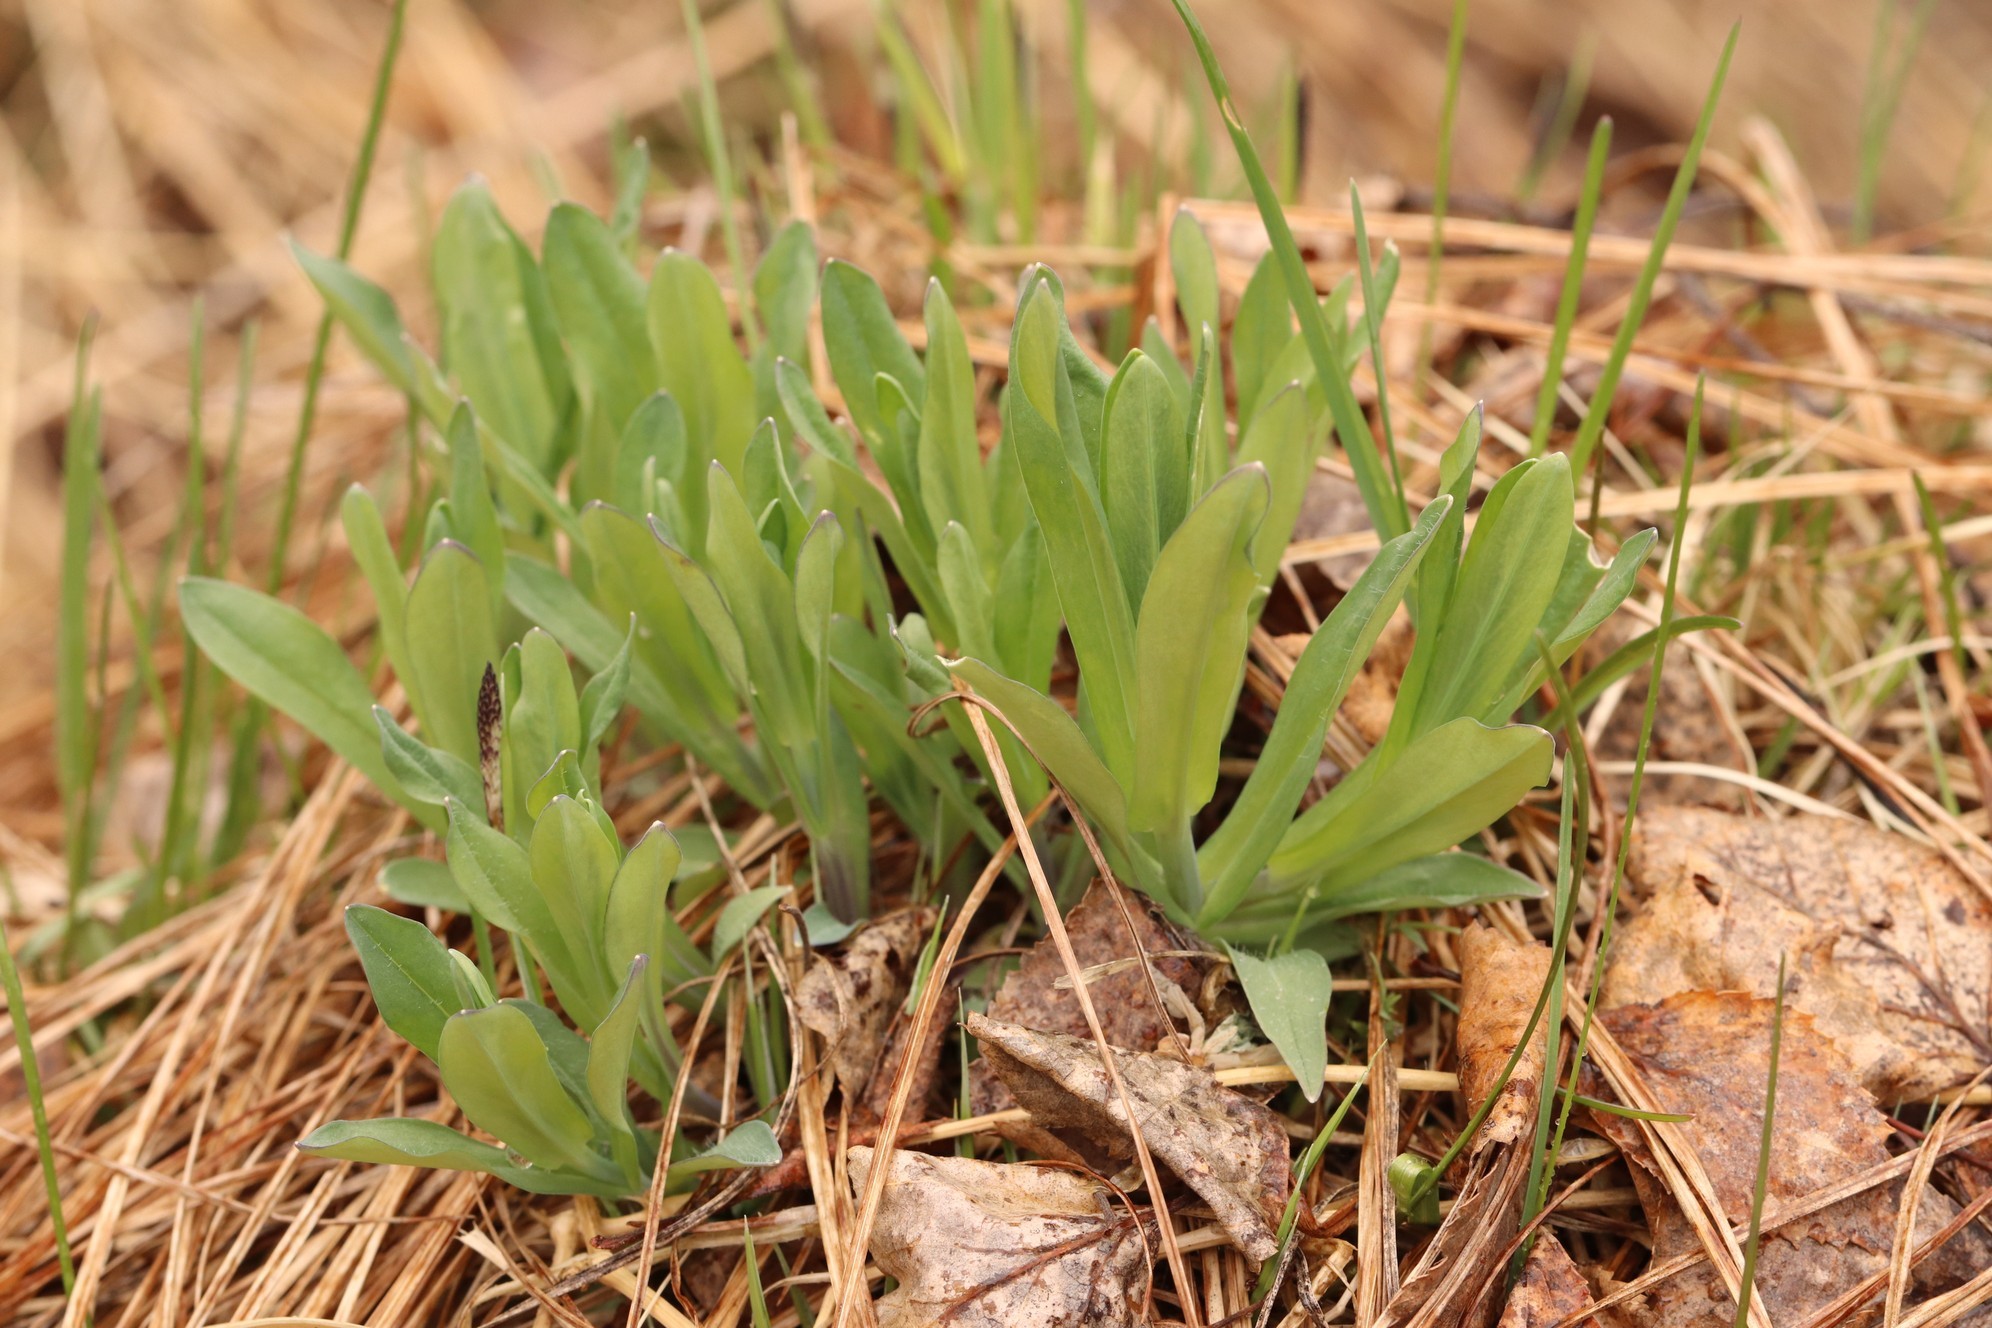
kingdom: Plantae
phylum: Tracheophyta
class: Magnoliopsida
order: Caryophyllales
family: Caryophyllaceae
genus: Silene
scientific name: Silene vulgaris
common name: Bladder campion
